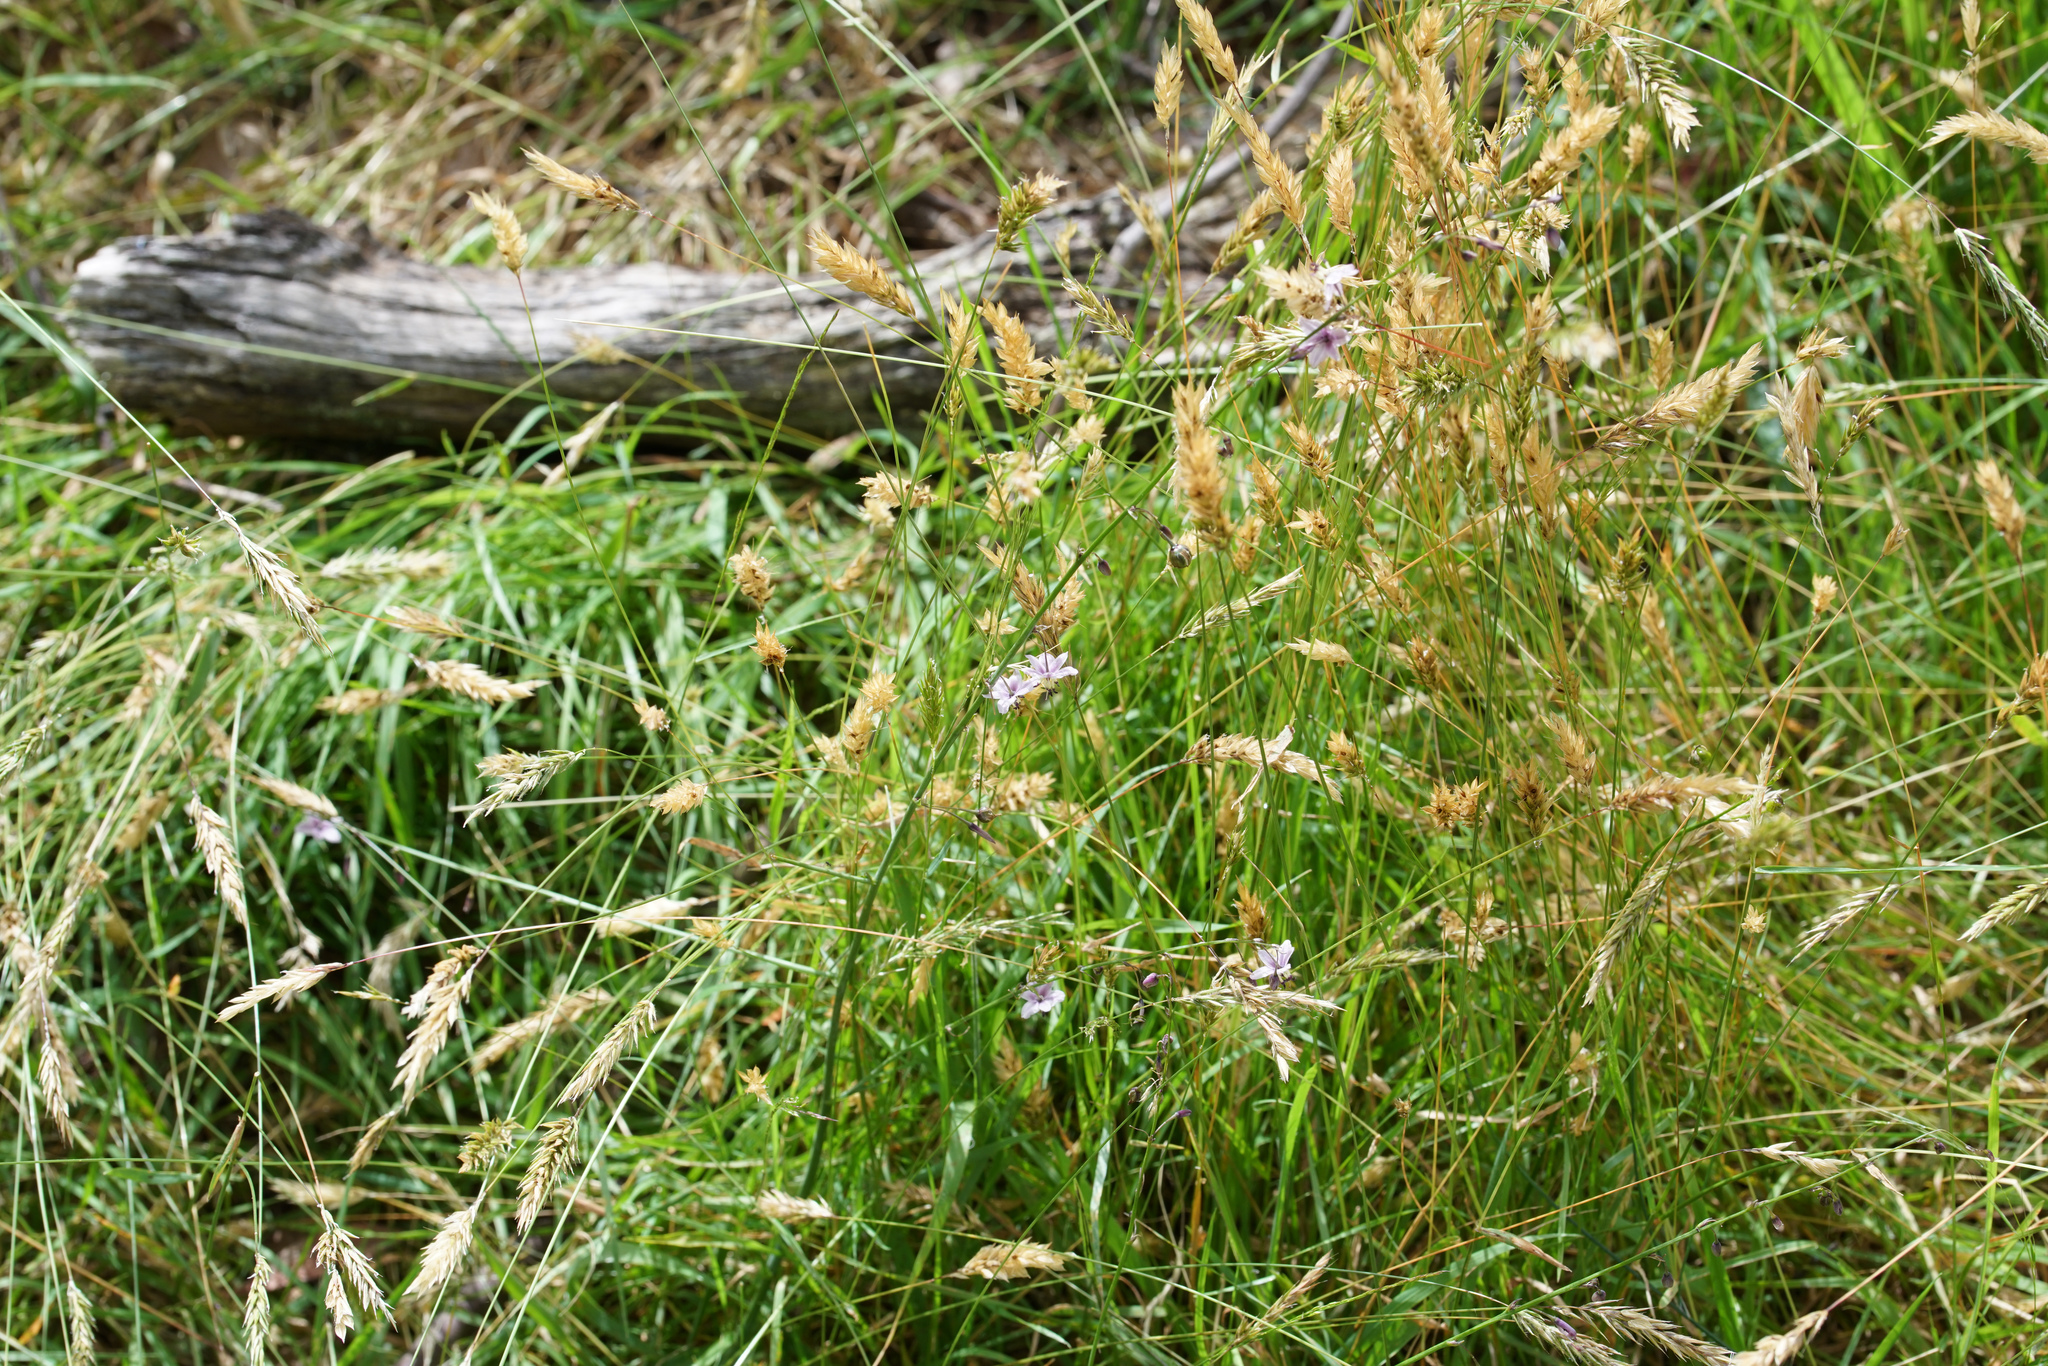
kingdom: Plantae
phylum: Tracheophyta
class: Liliopsida
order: Asparagales
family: Asparagaceae
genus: Arthropodium
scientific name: Arthropodium milleflorum
